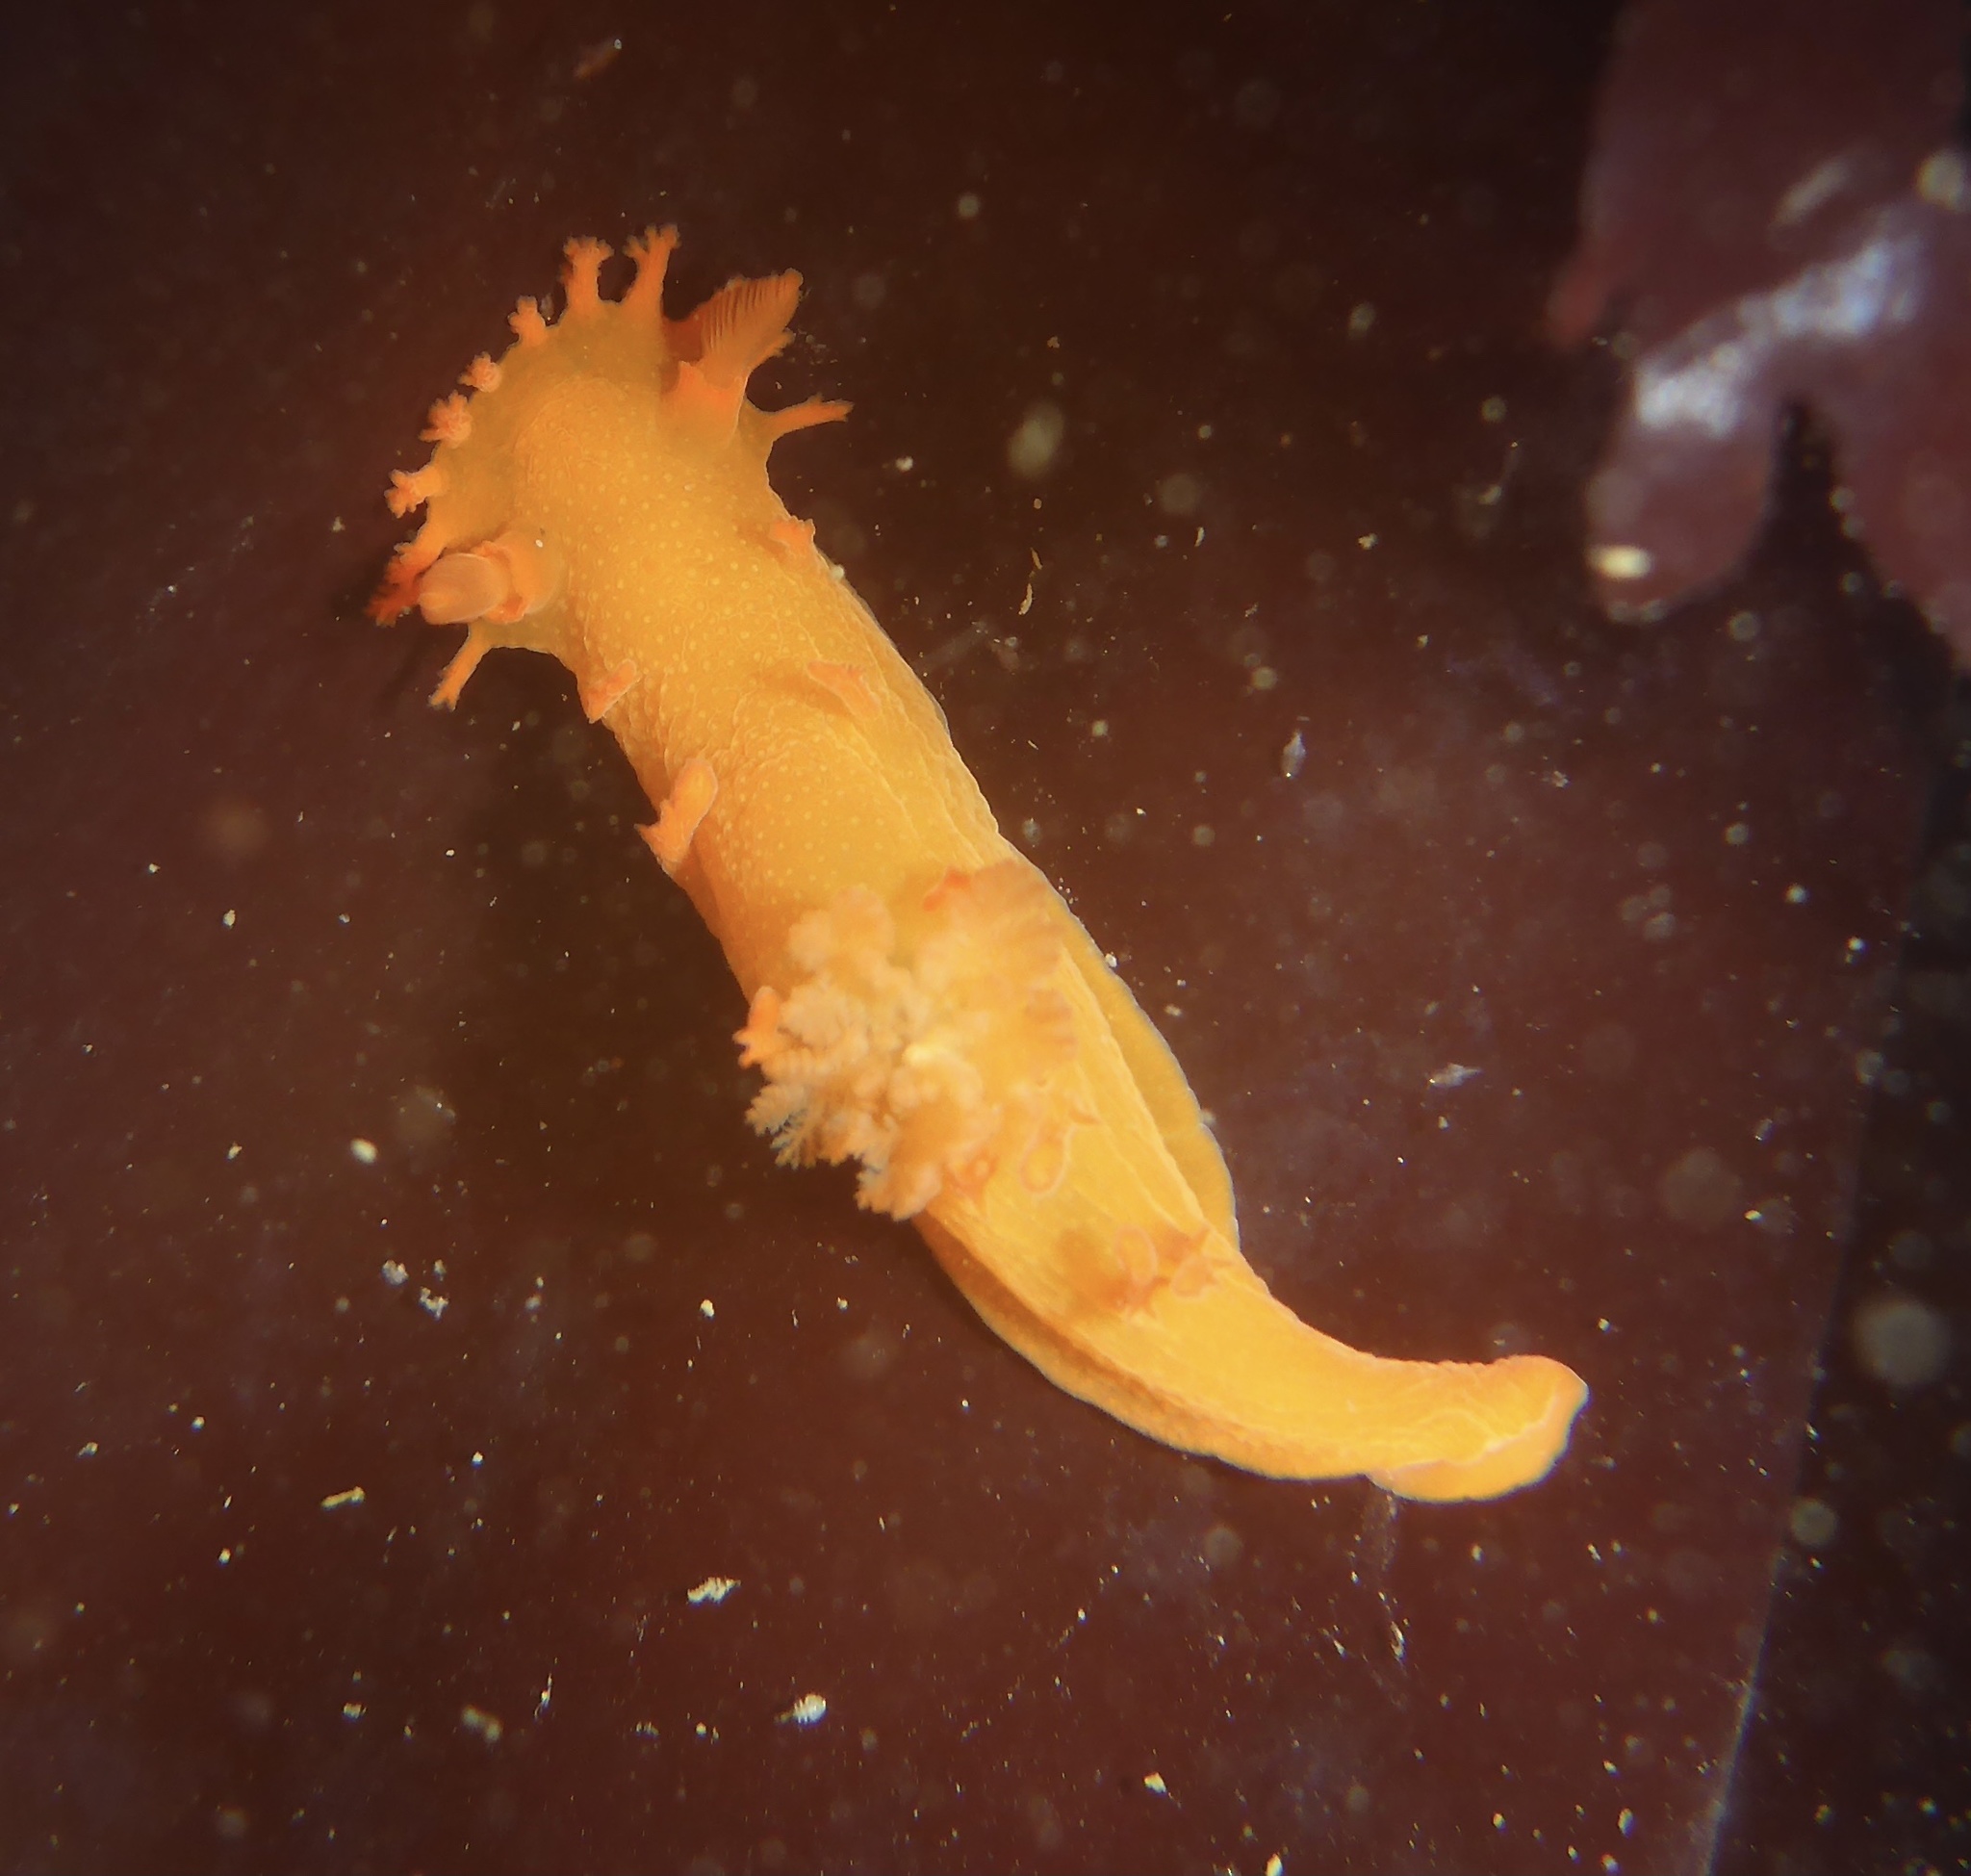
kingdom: Animalia
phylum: Mollusca
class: Gastropoda
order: Nudibranchia
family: Polyceridae
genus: Triopha
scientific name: Triopha maculata
